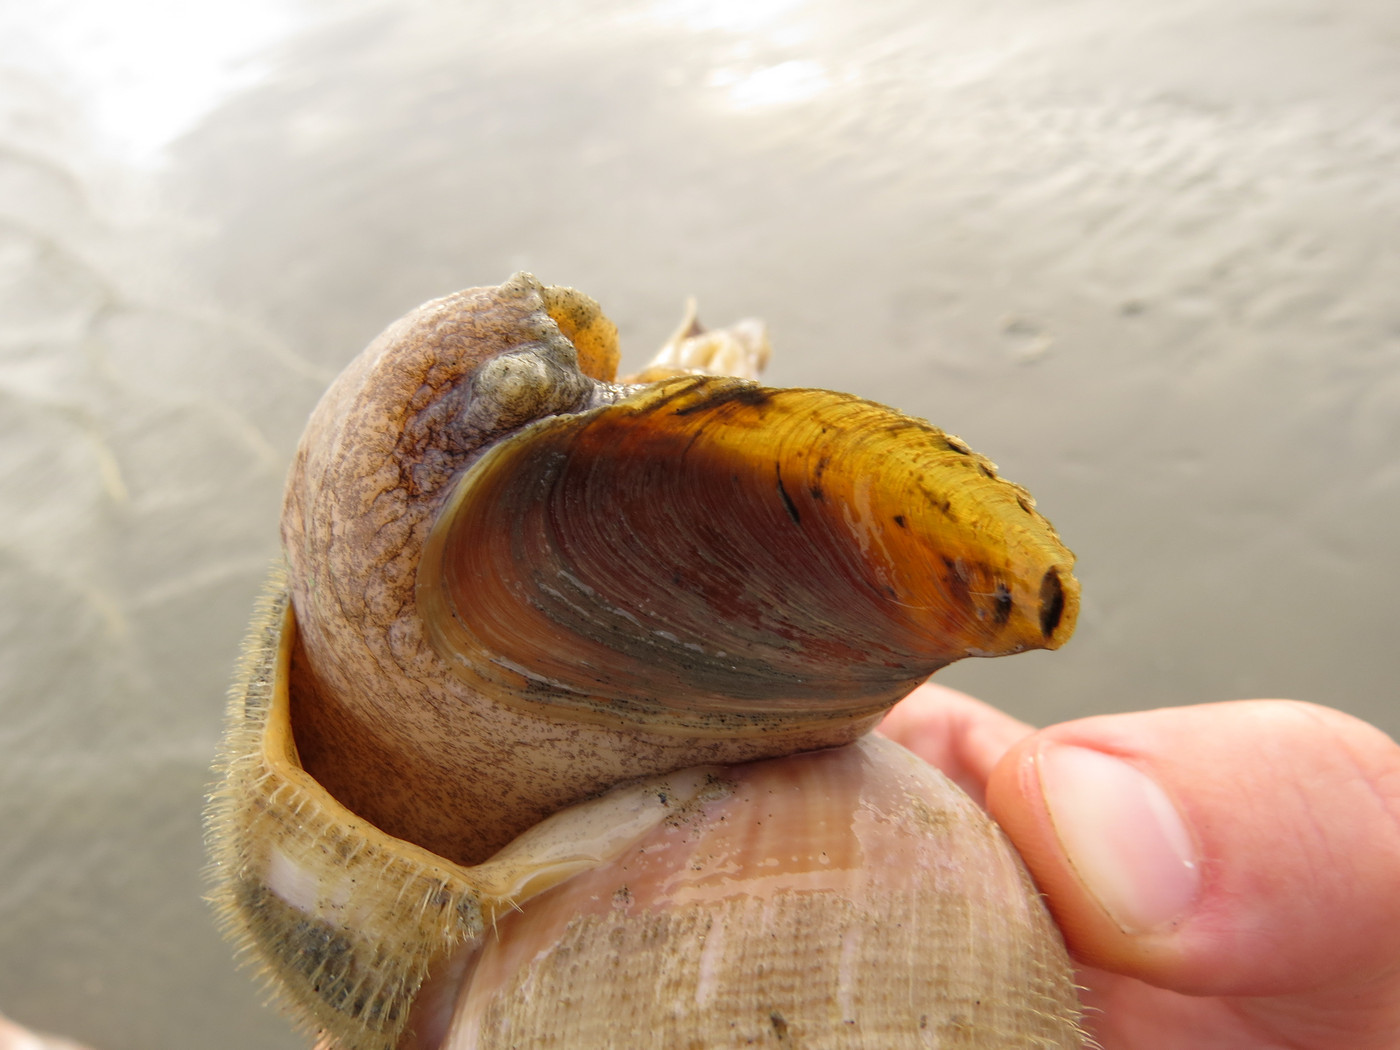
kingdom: Animalia
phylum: Mollusca
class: Gastropoda
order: Neogastropoda
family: Busyconidae
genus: Busycotypus
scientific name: Busycotypus canaliculatus
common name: Channeled whelk
